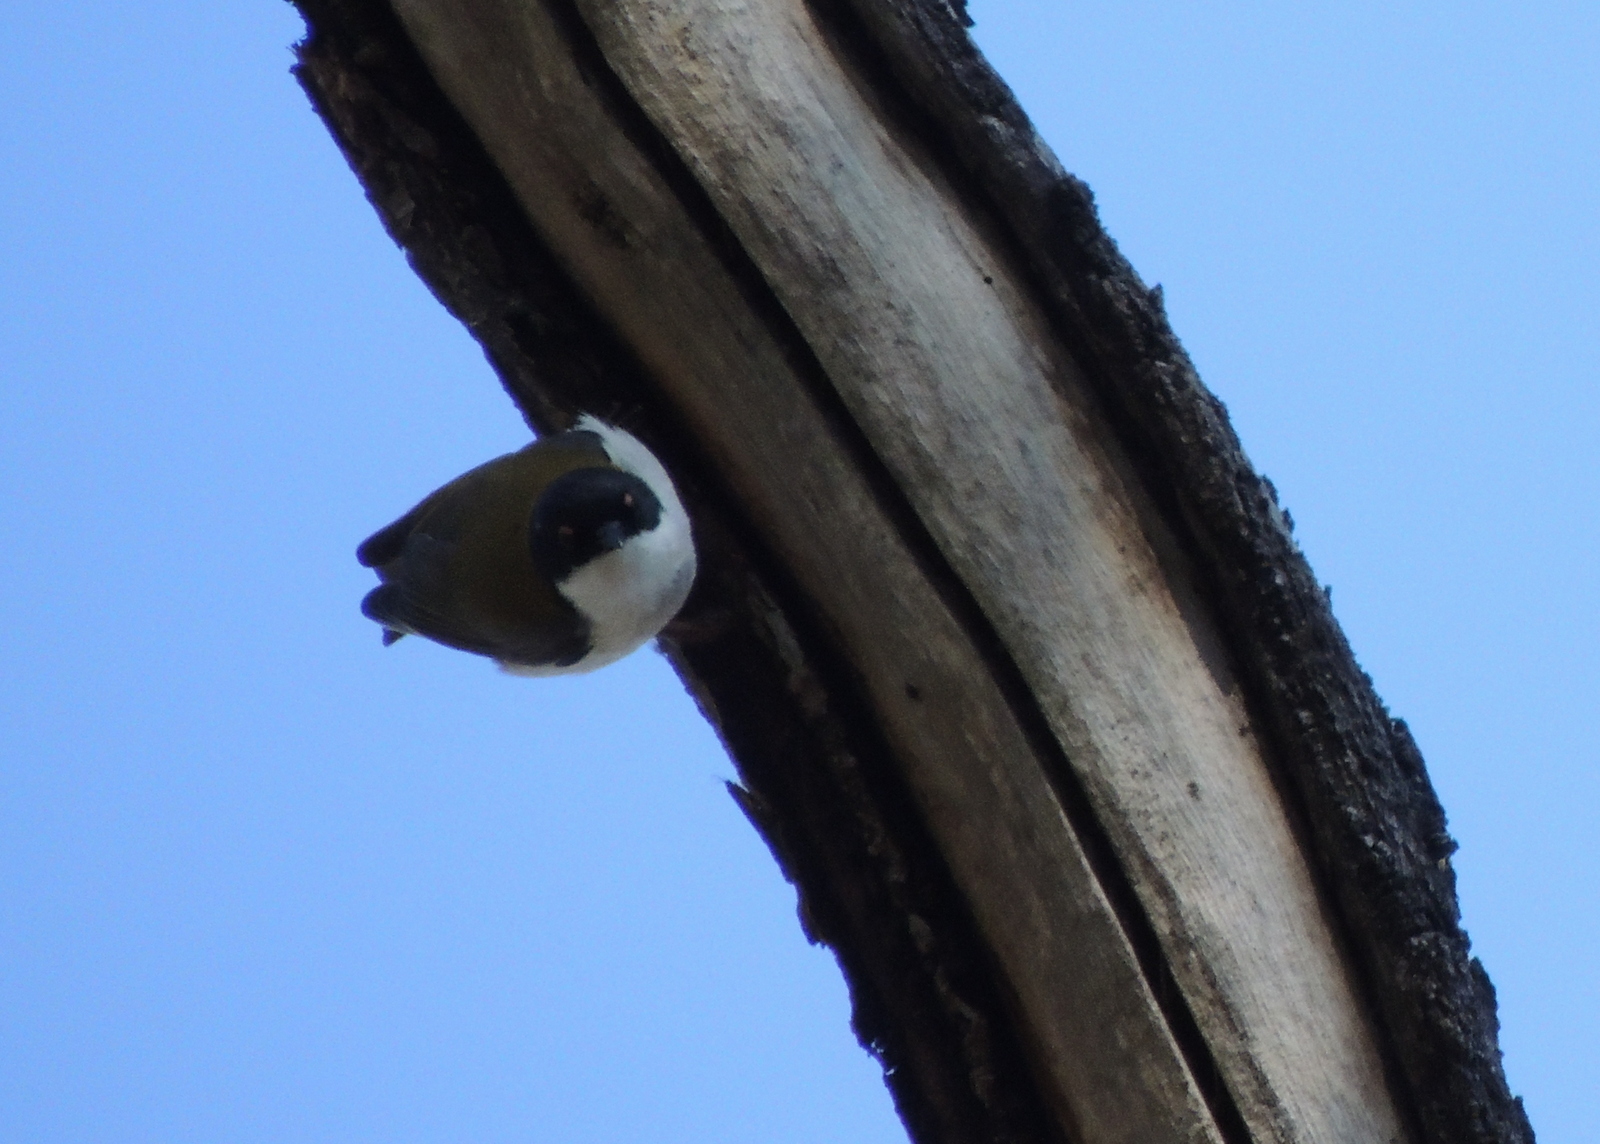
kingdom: Animalia
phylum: Chordata
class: Aves
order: Passeriformes
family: Meliphagidae
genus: Melithreptus
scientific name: Melithreptus lunatus
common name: White-naped honeyeater
